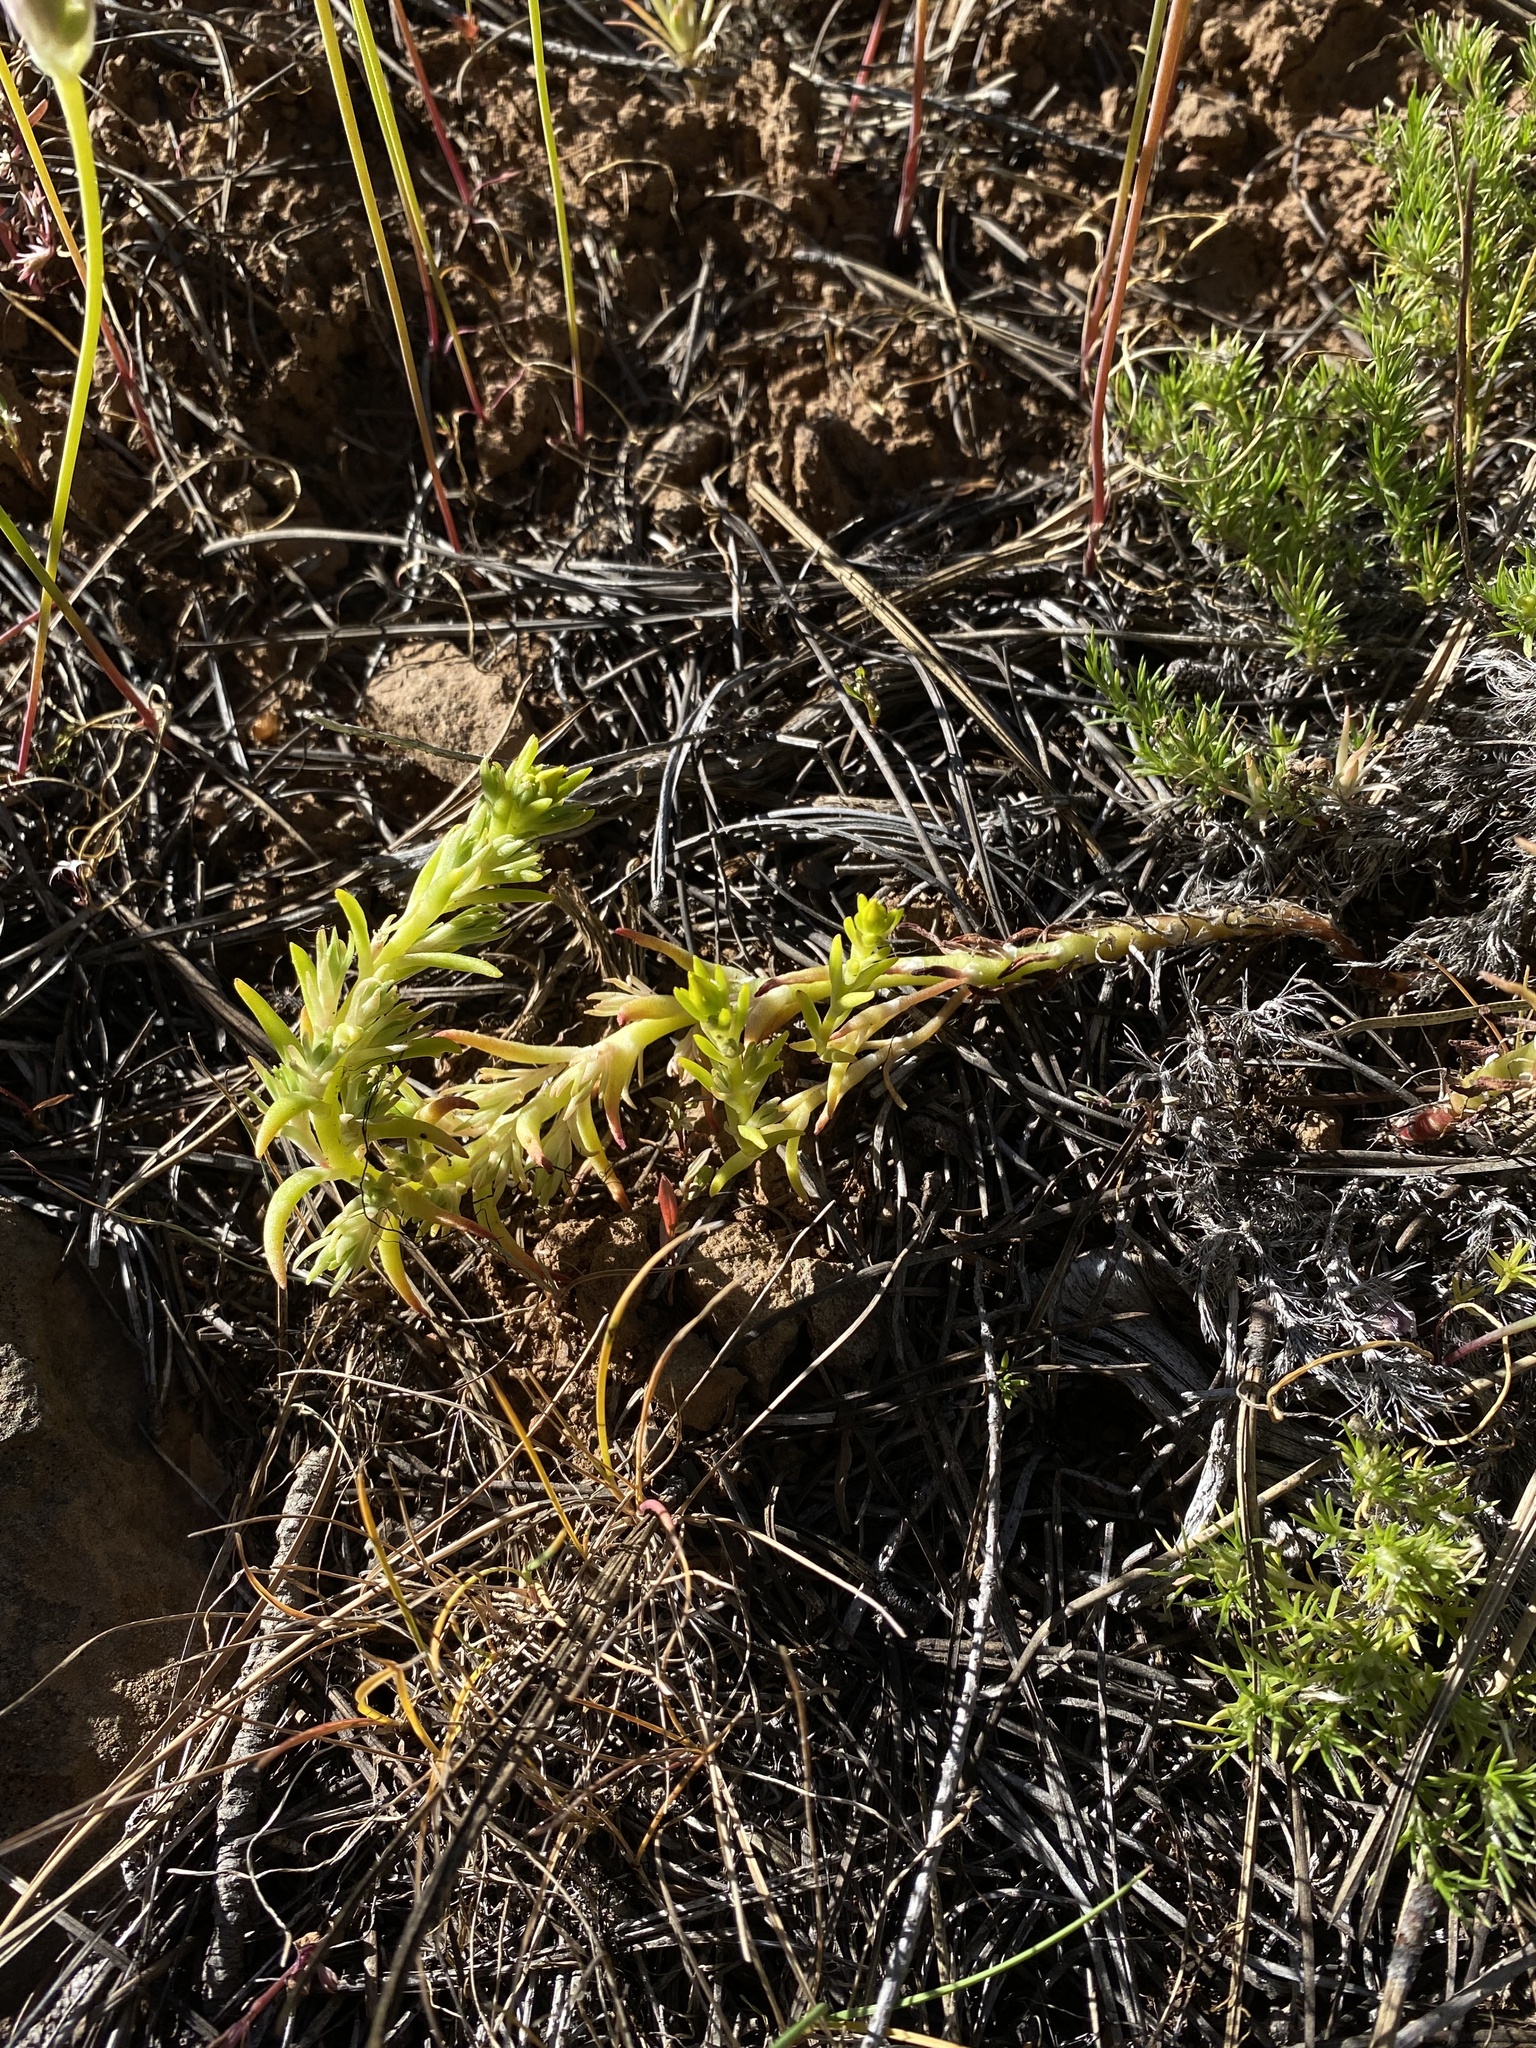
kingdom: Plantae
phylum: Tracheophyta
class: Magnoliopsida
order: Saxifragales
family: Crassulaceae
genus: Sedum
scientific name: Sedum stenopetalum
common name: Narrow-petaled stonecrop
